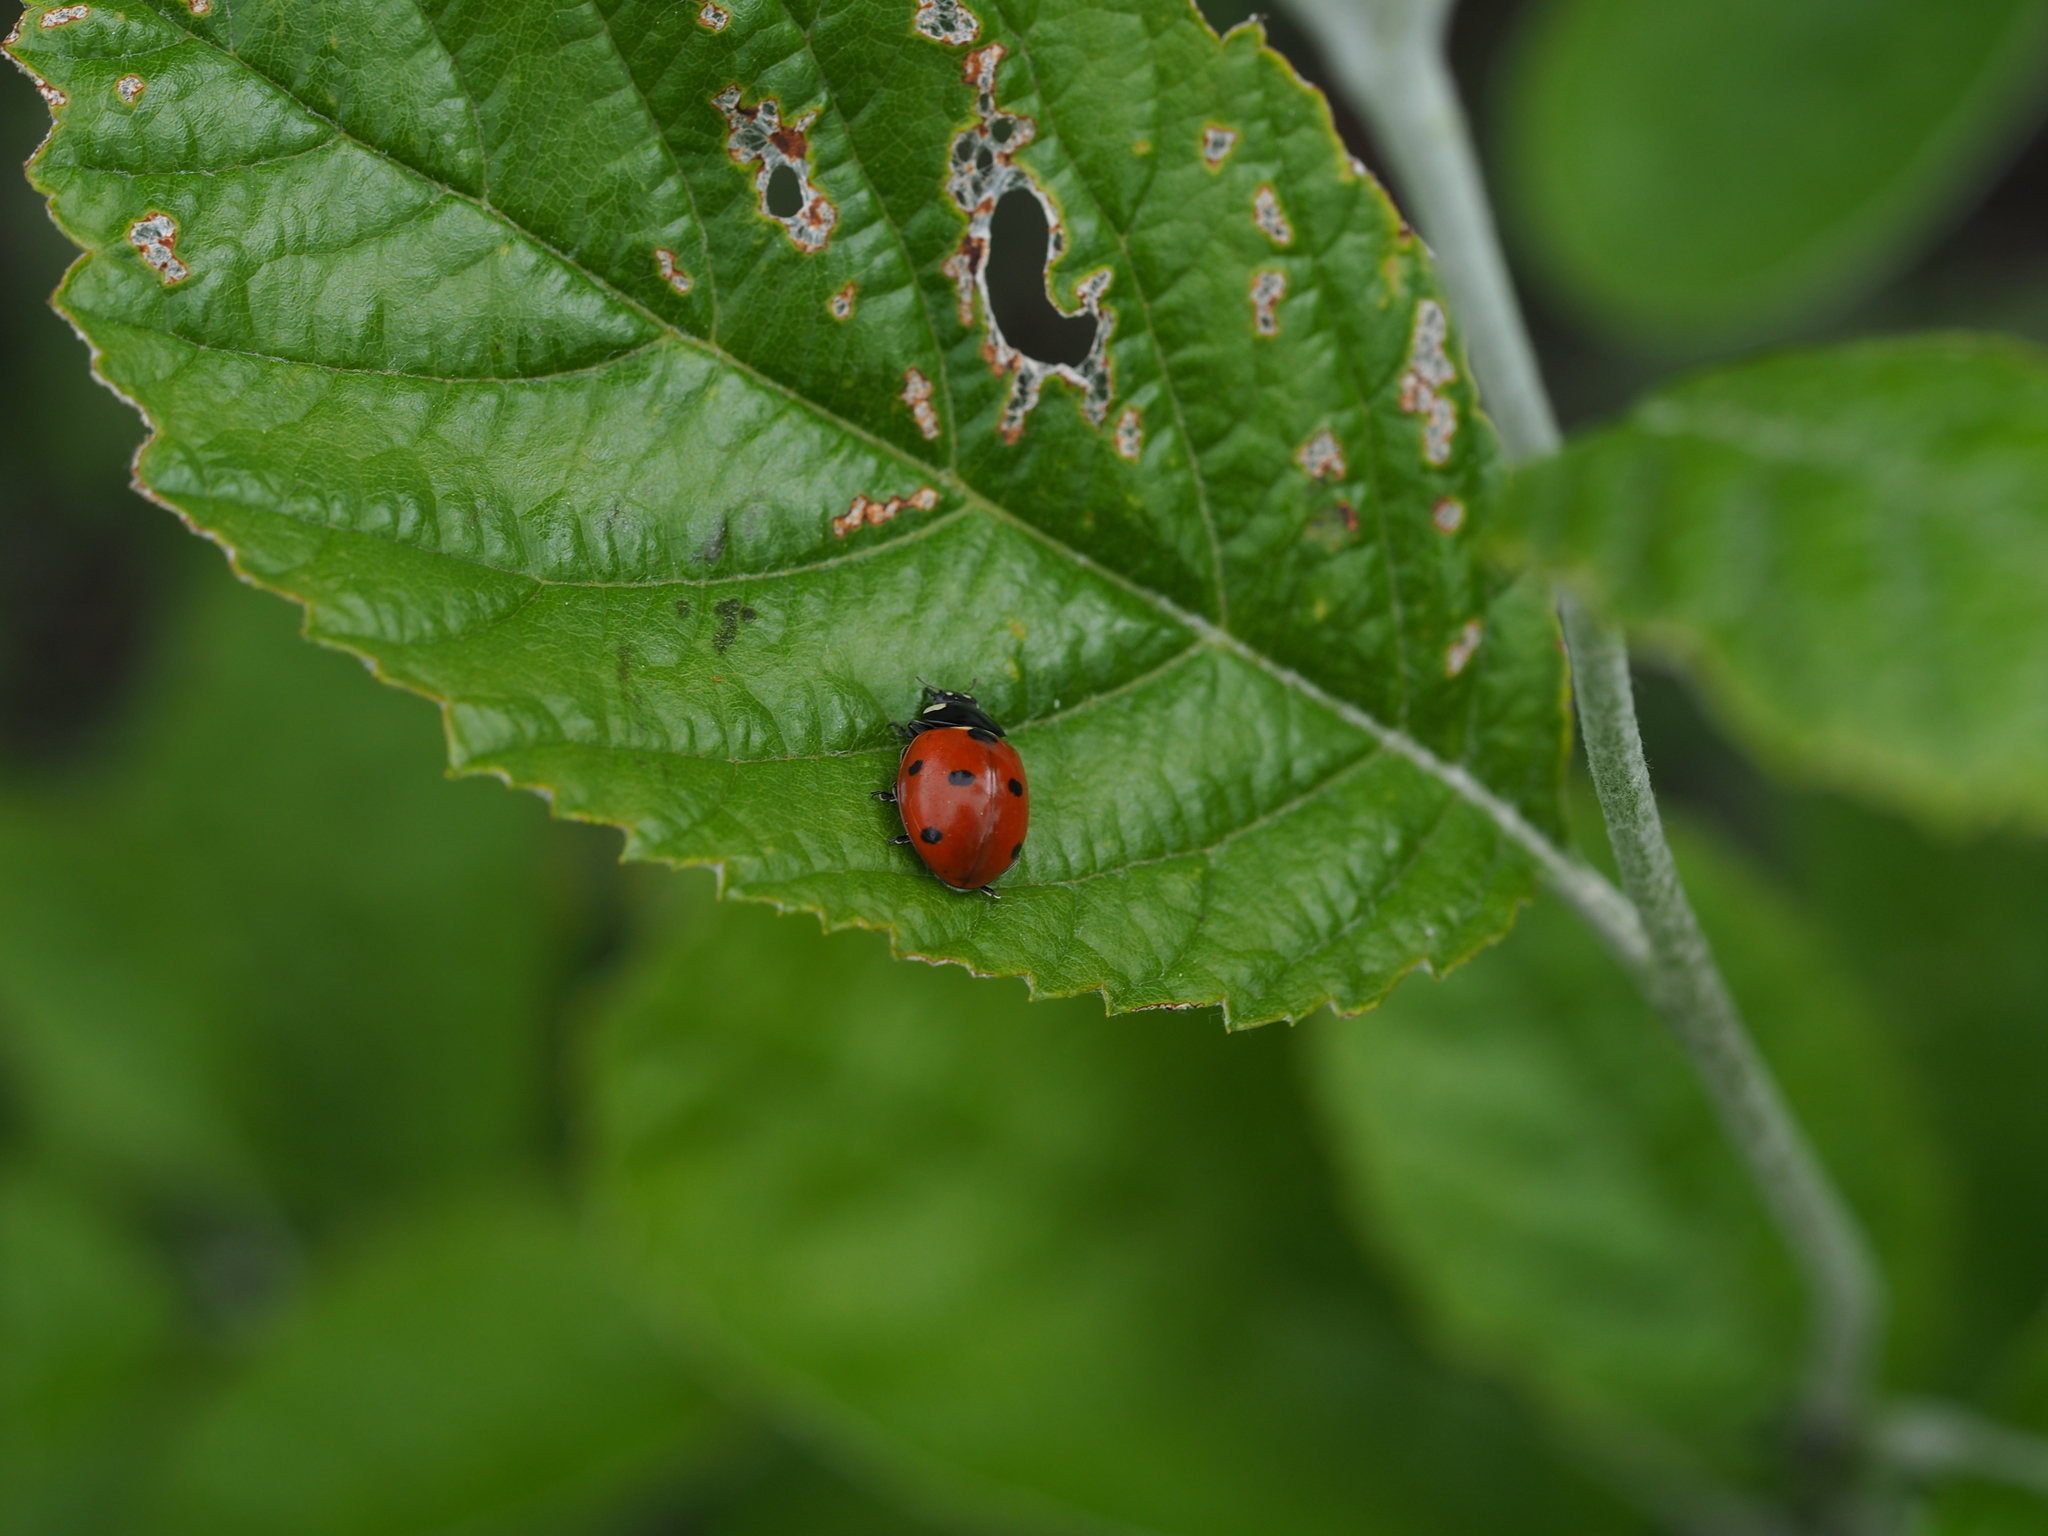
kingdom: Animalia
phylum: Arthropoda
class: Insecta
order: Coleoptera
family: Coccinellidae
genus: Coccinella
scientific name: Coccinella septempunctata
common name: Sevenspotted lady beetle
